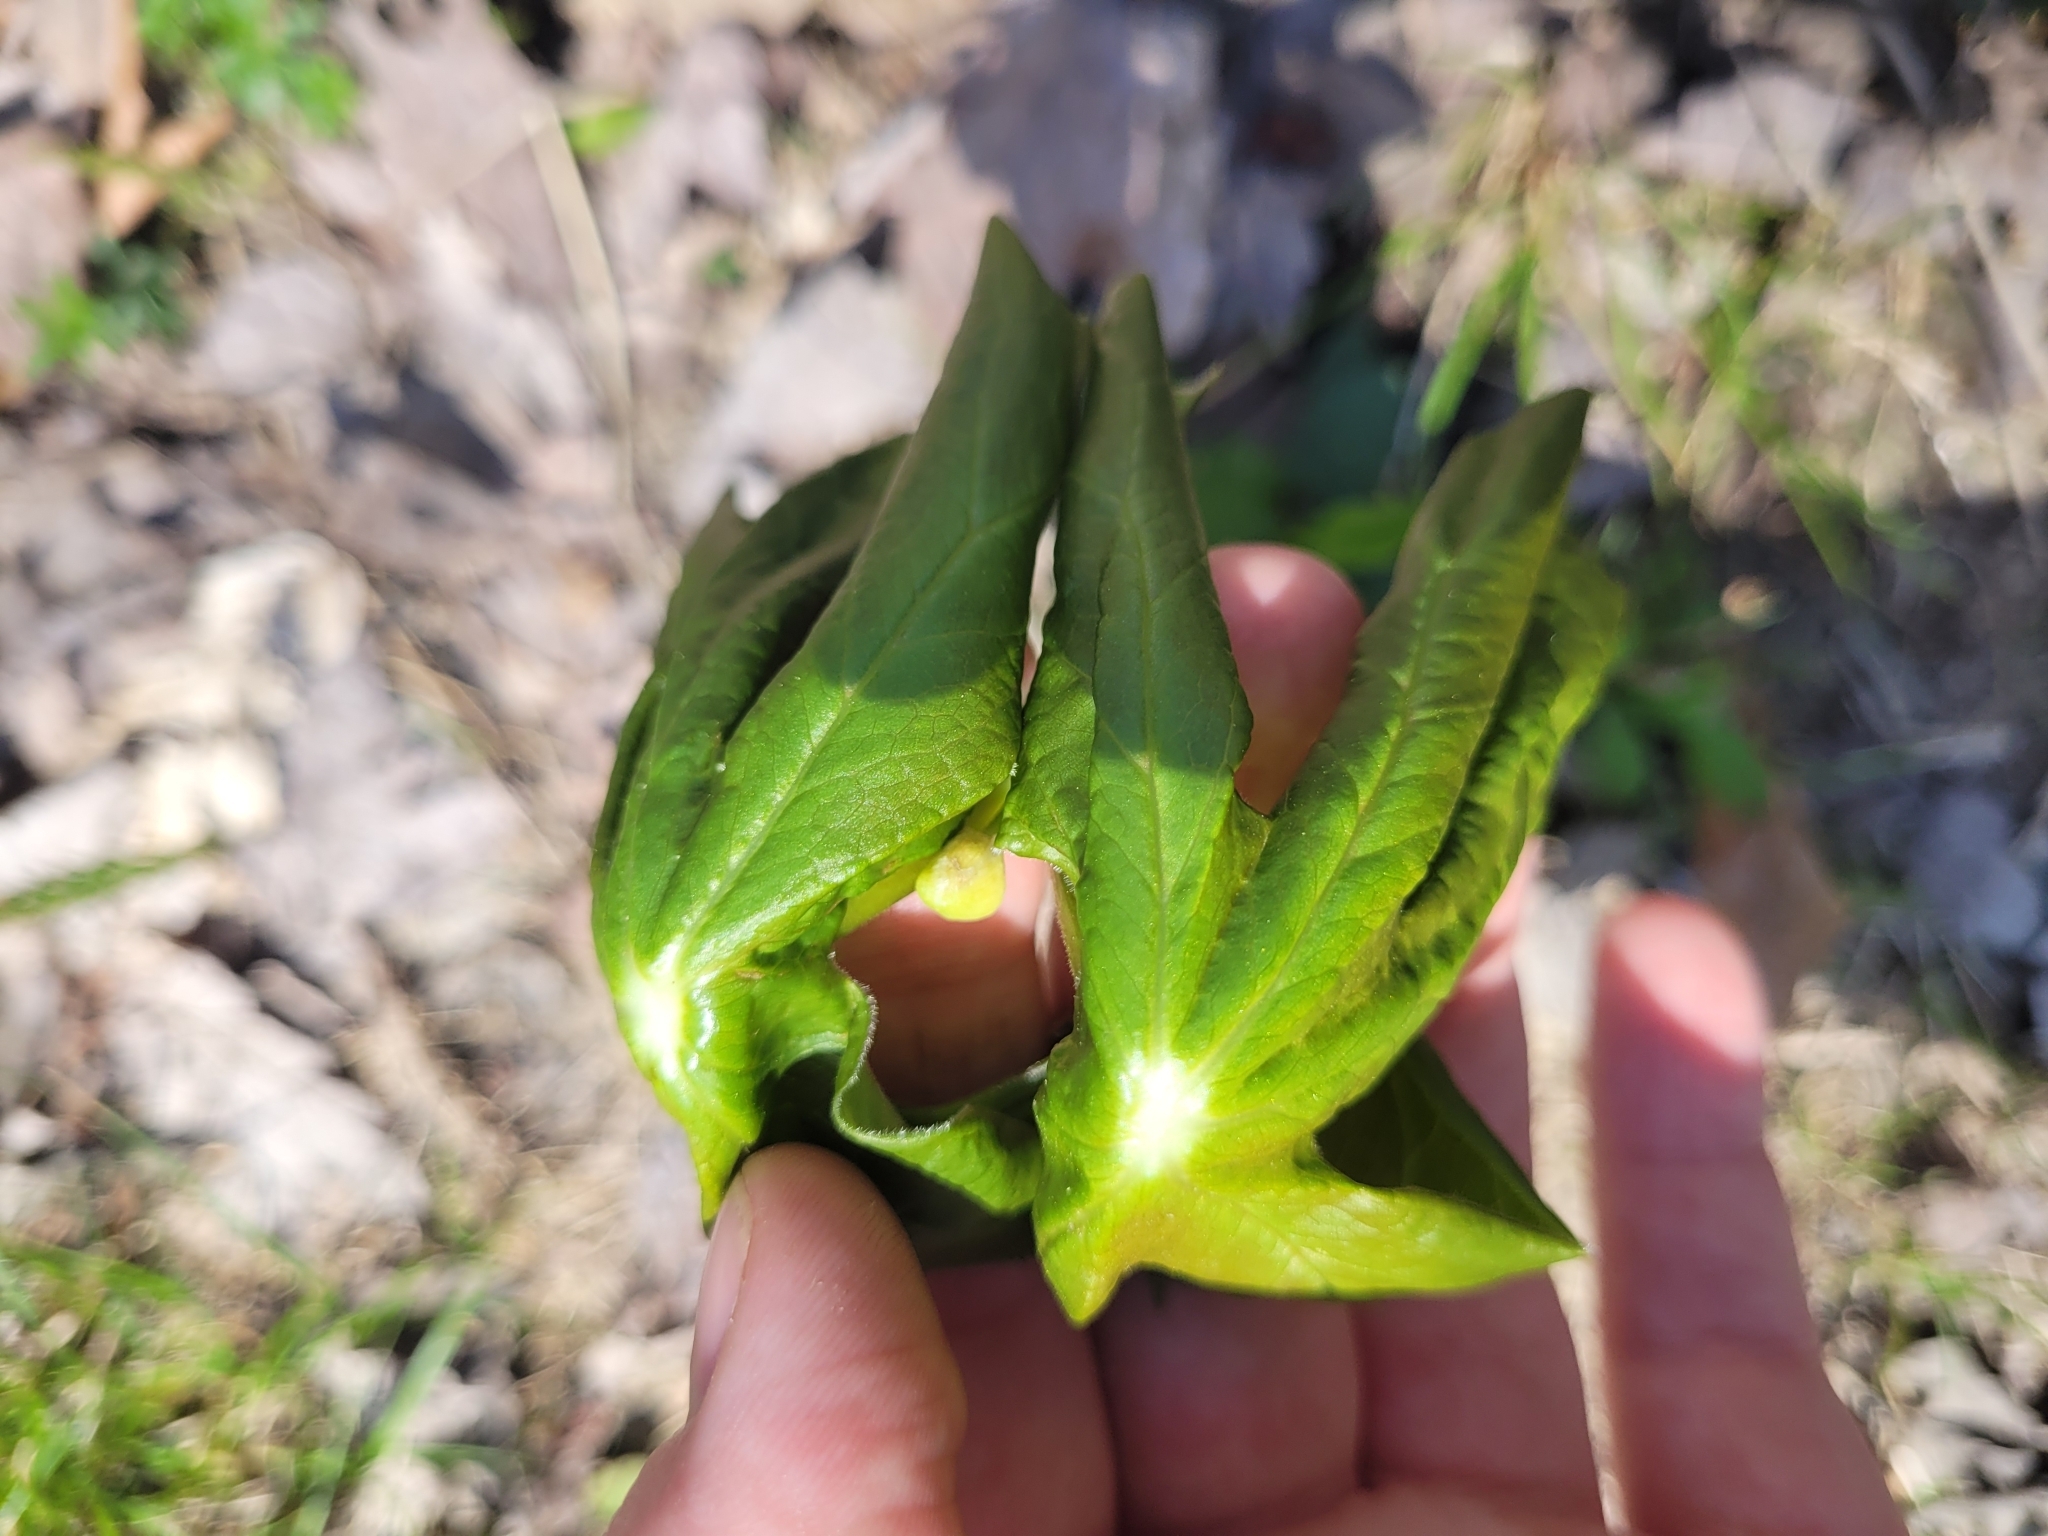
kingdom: Plantae
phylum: Tracheophyta
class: Magnoliopsida
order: Ranunculales
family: Berberidaceae
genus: Podophyllum
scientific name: Podophyllum peltatum
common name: Wild mandrake
